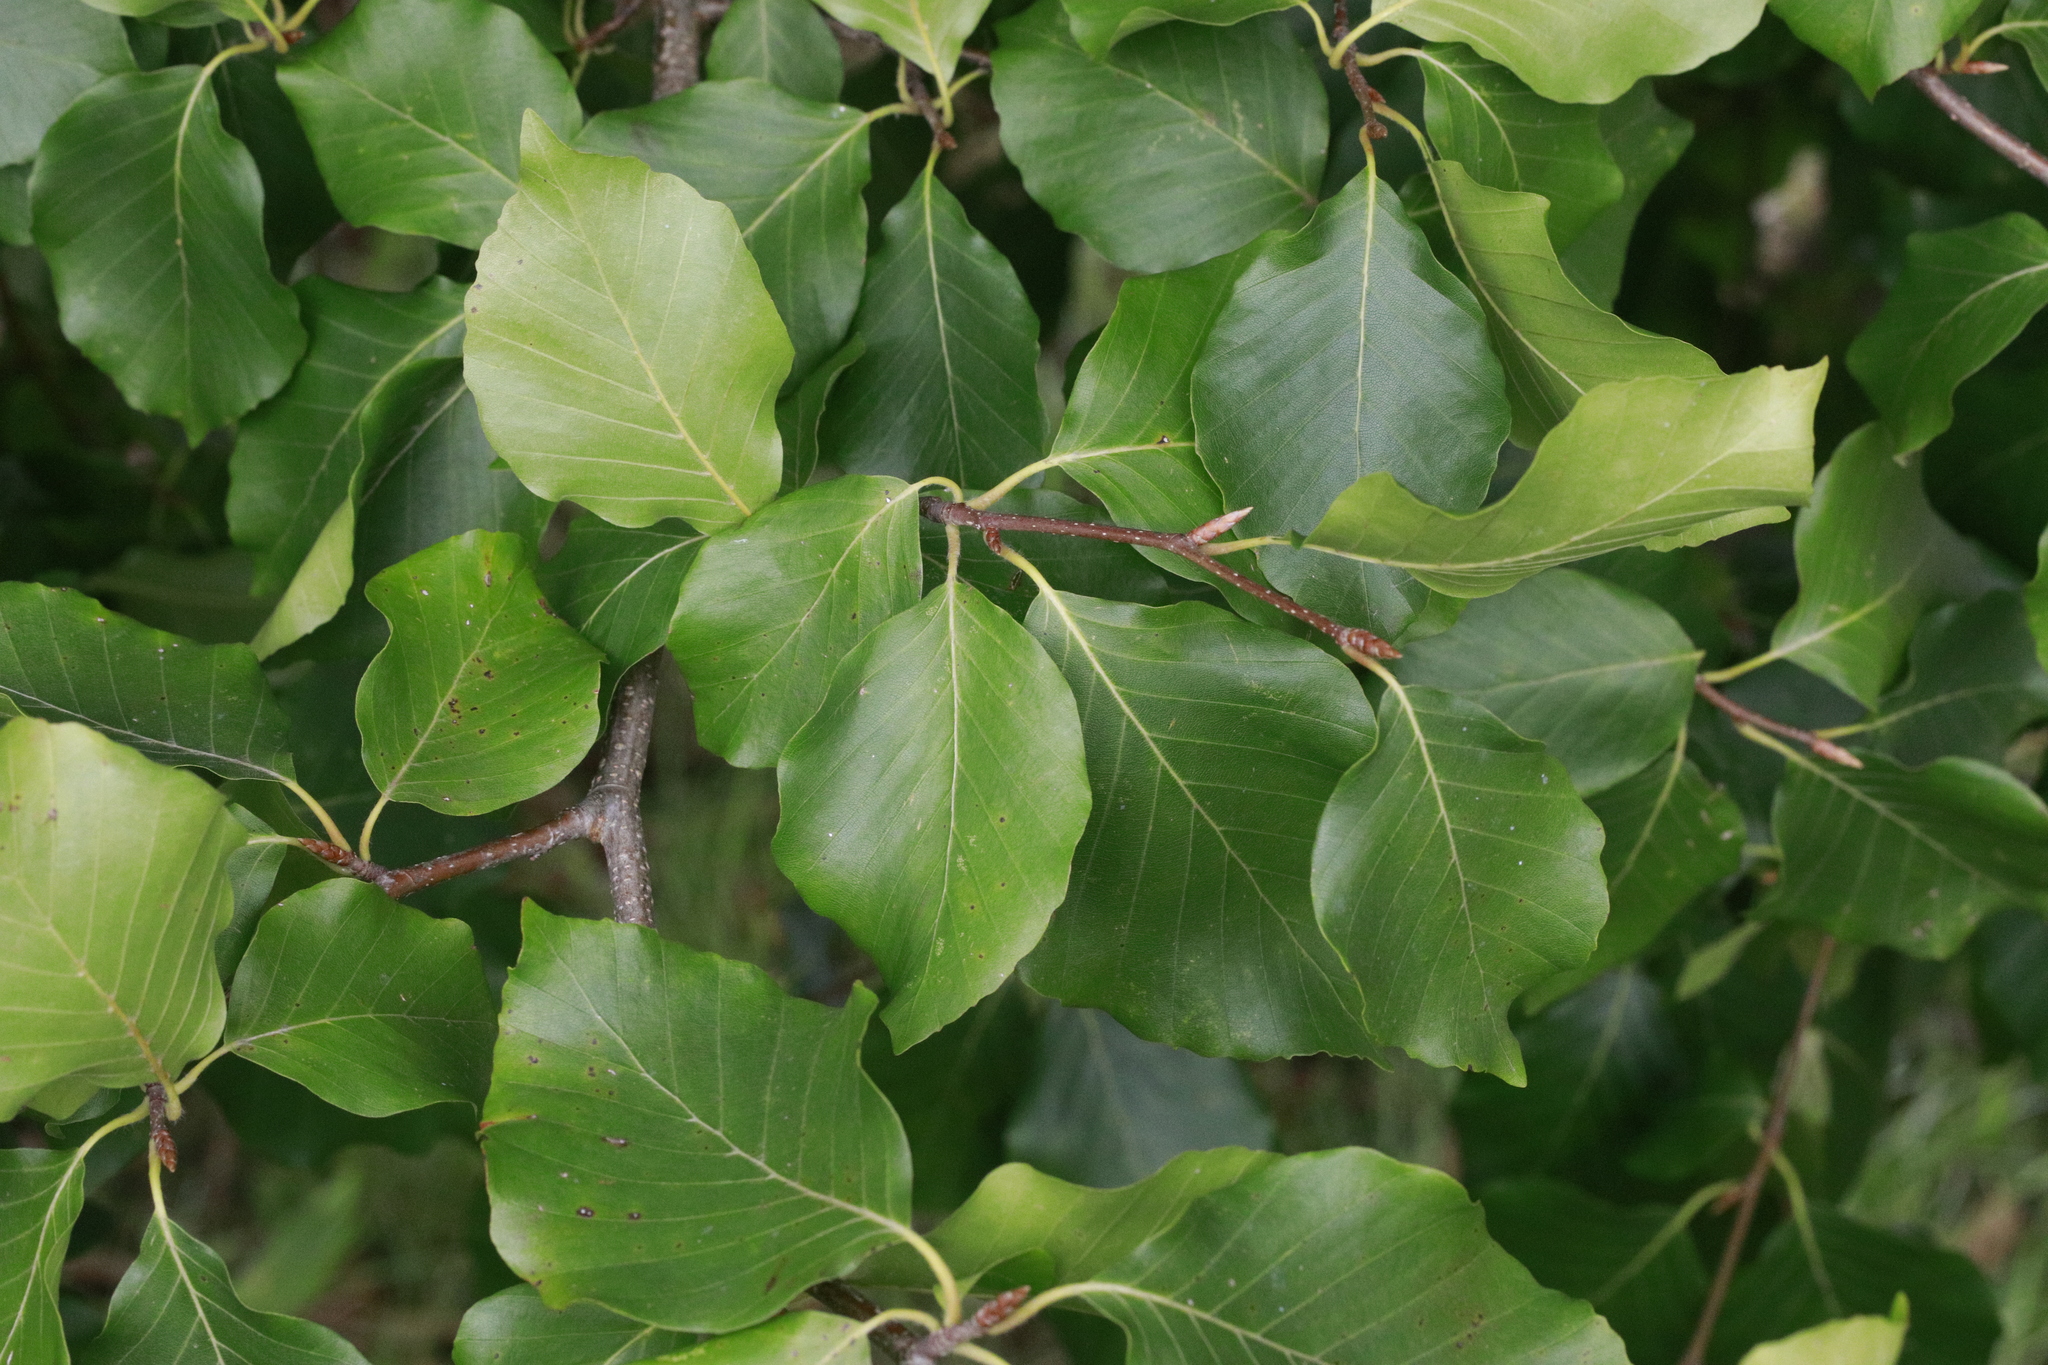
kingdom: Plantae
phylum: Tracheophyta
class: Magnoliopsida
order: Fagales
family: Fagaceae
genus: Fagus
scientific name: Fagus sylvatica
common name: Beech
